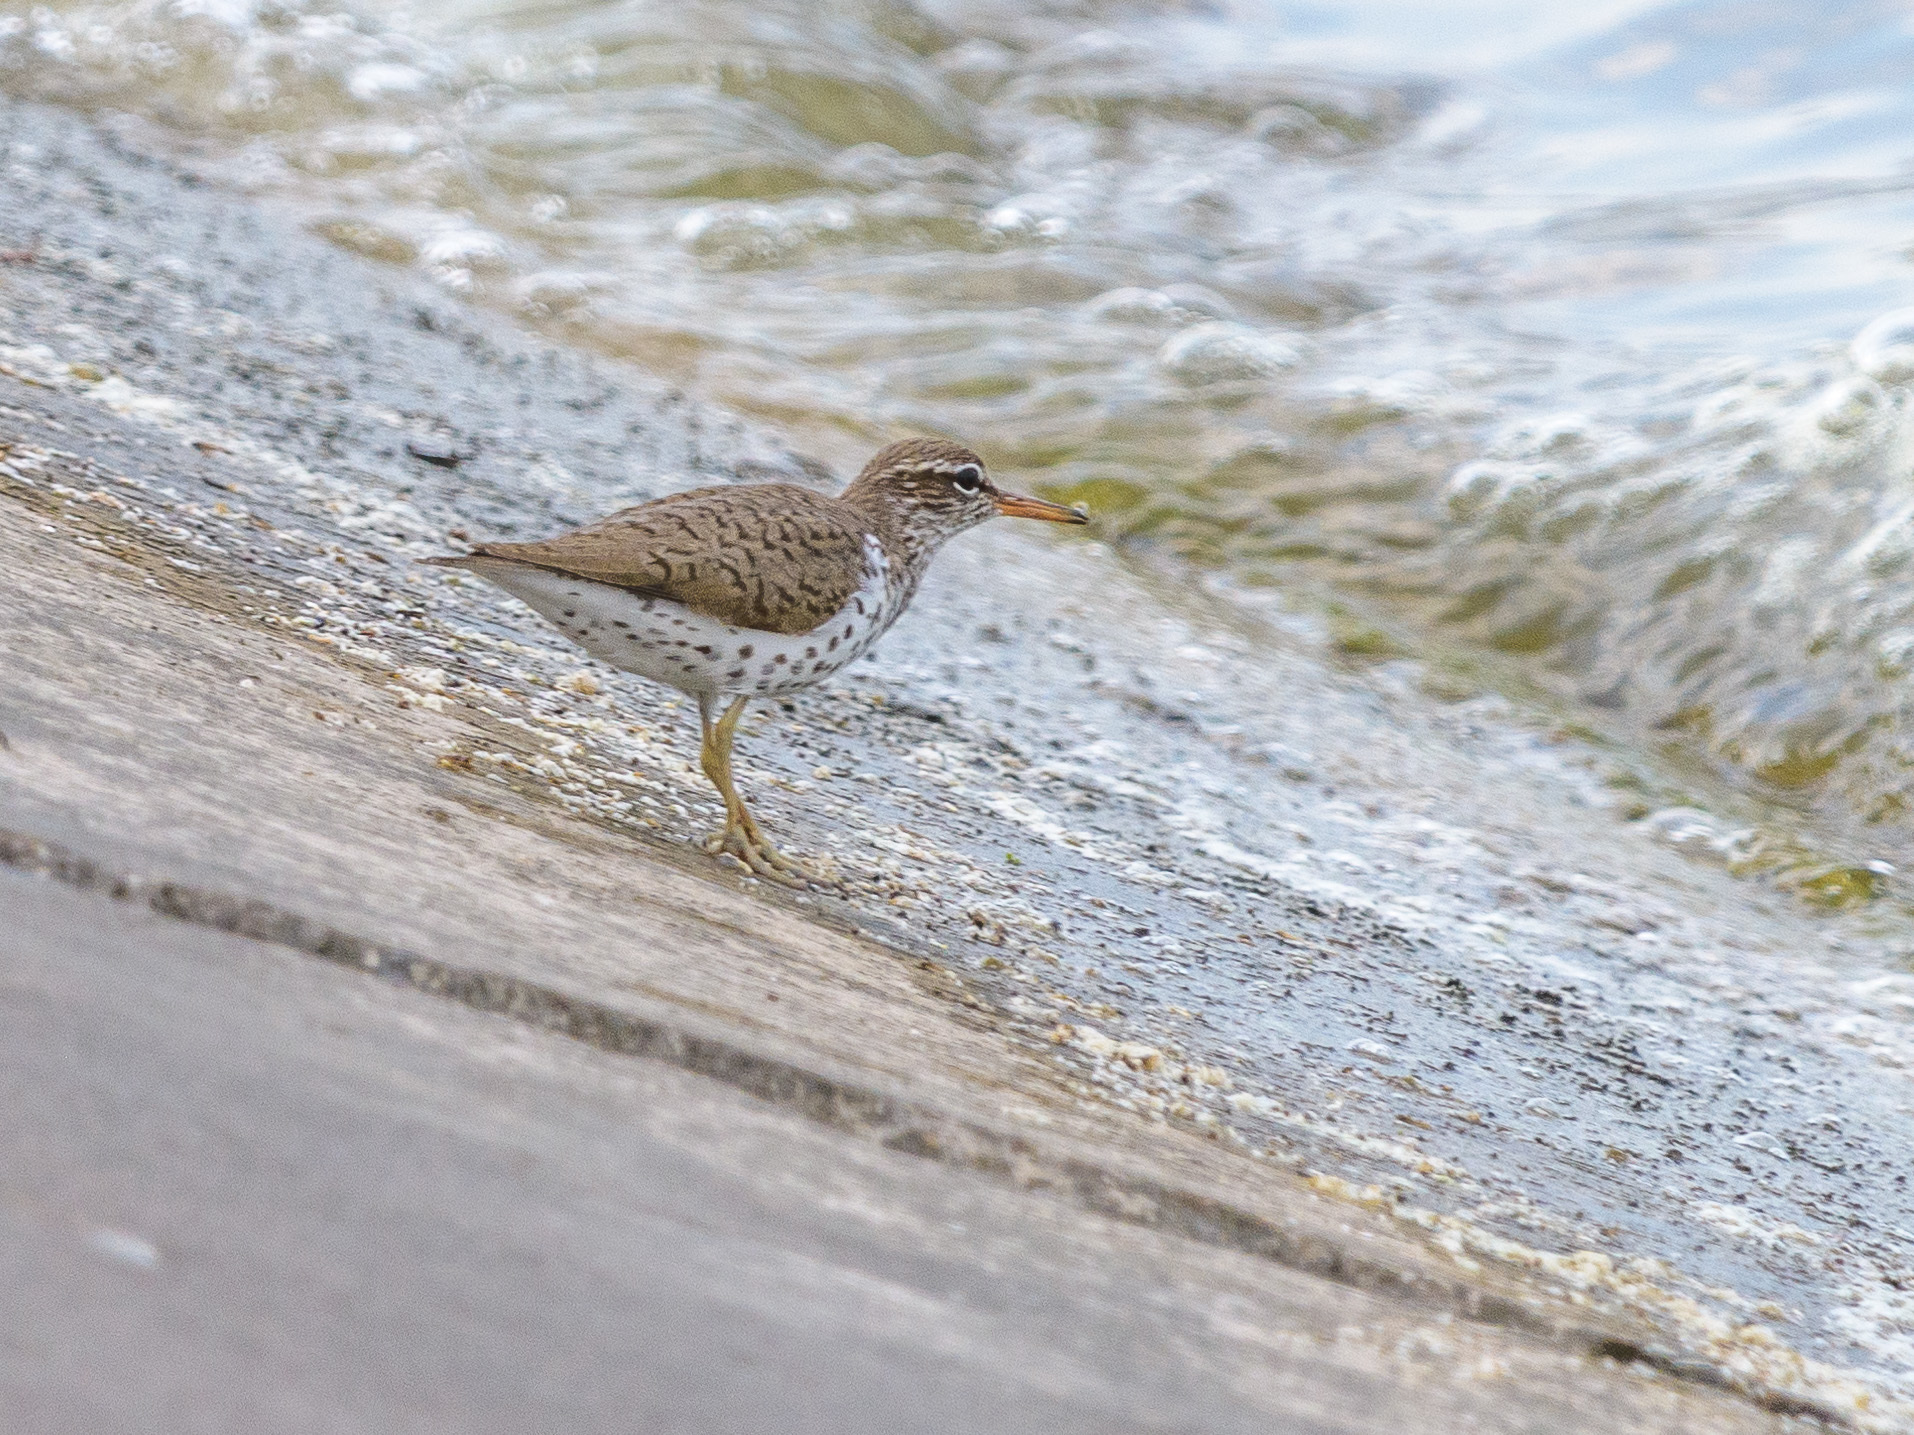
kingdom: Animalia
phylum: Chordata
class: Aves
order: Charadriiformes
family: Scolopacidae
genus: Actitis
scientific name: Actitis macularius
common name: Spotted sandpiper
